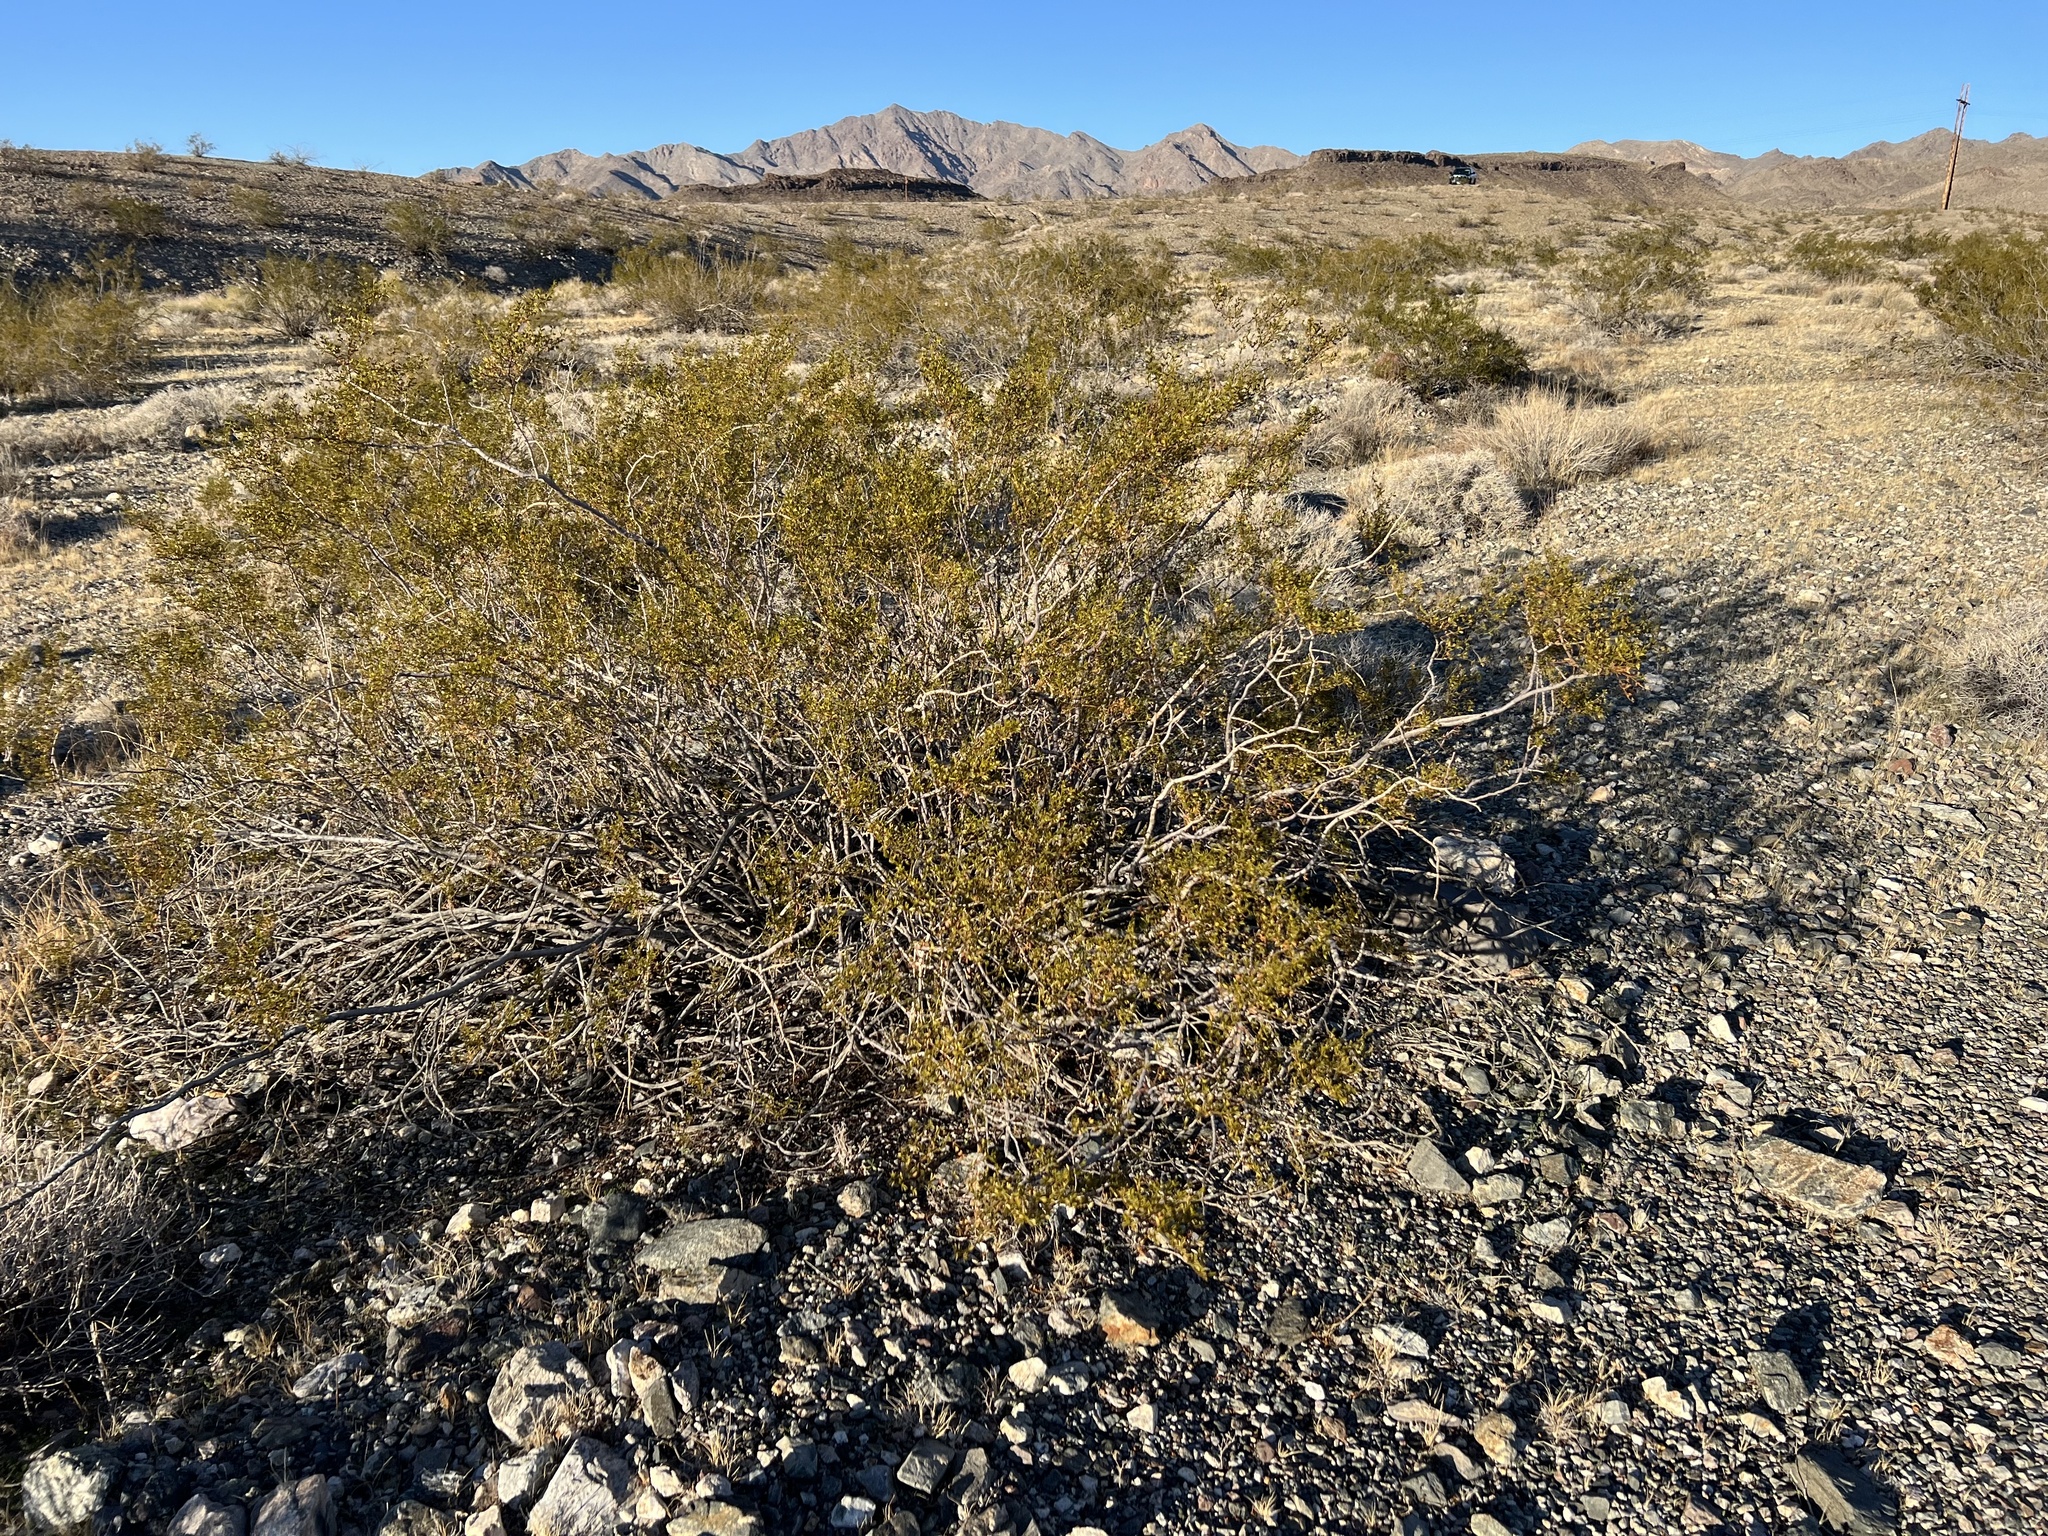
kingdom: Plantae
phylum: Tracheophyta
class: Magnoliopsida
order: Zygophyllales
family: Zygophyllaceae
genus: Larrea
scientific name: Larrea tridentata
